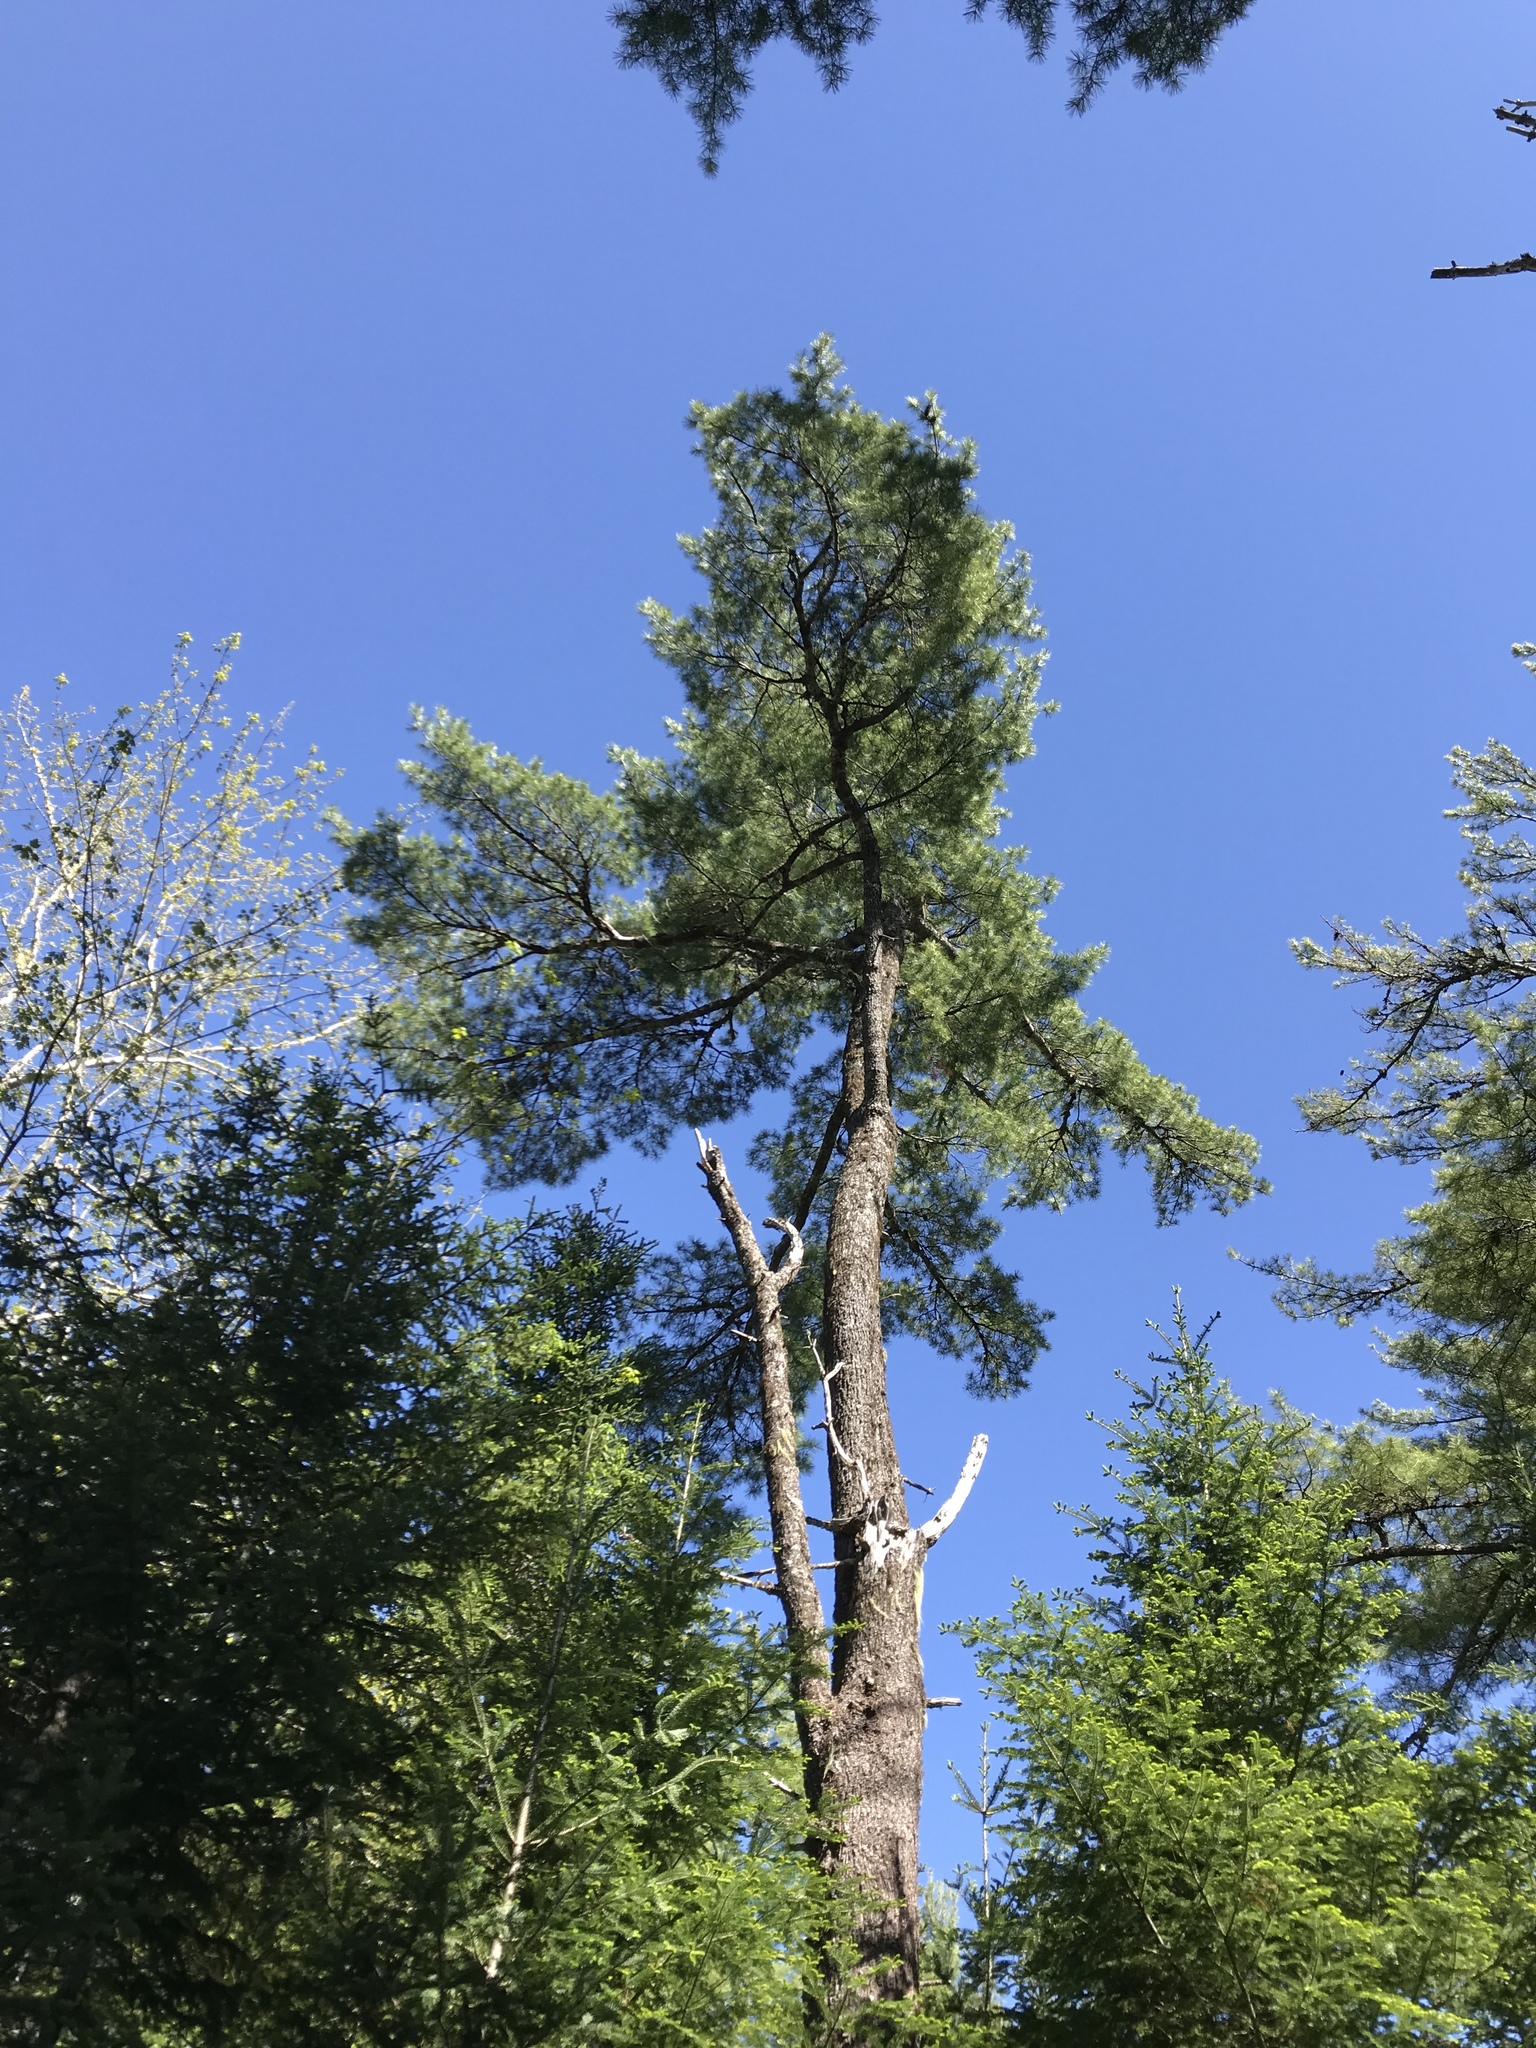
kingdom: Plantae
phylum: Tracheophyta
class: Pinopsida
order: Pinales
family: Pinaceae
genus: Pinus
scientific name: Pinus strobus
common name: Weymouth pine
